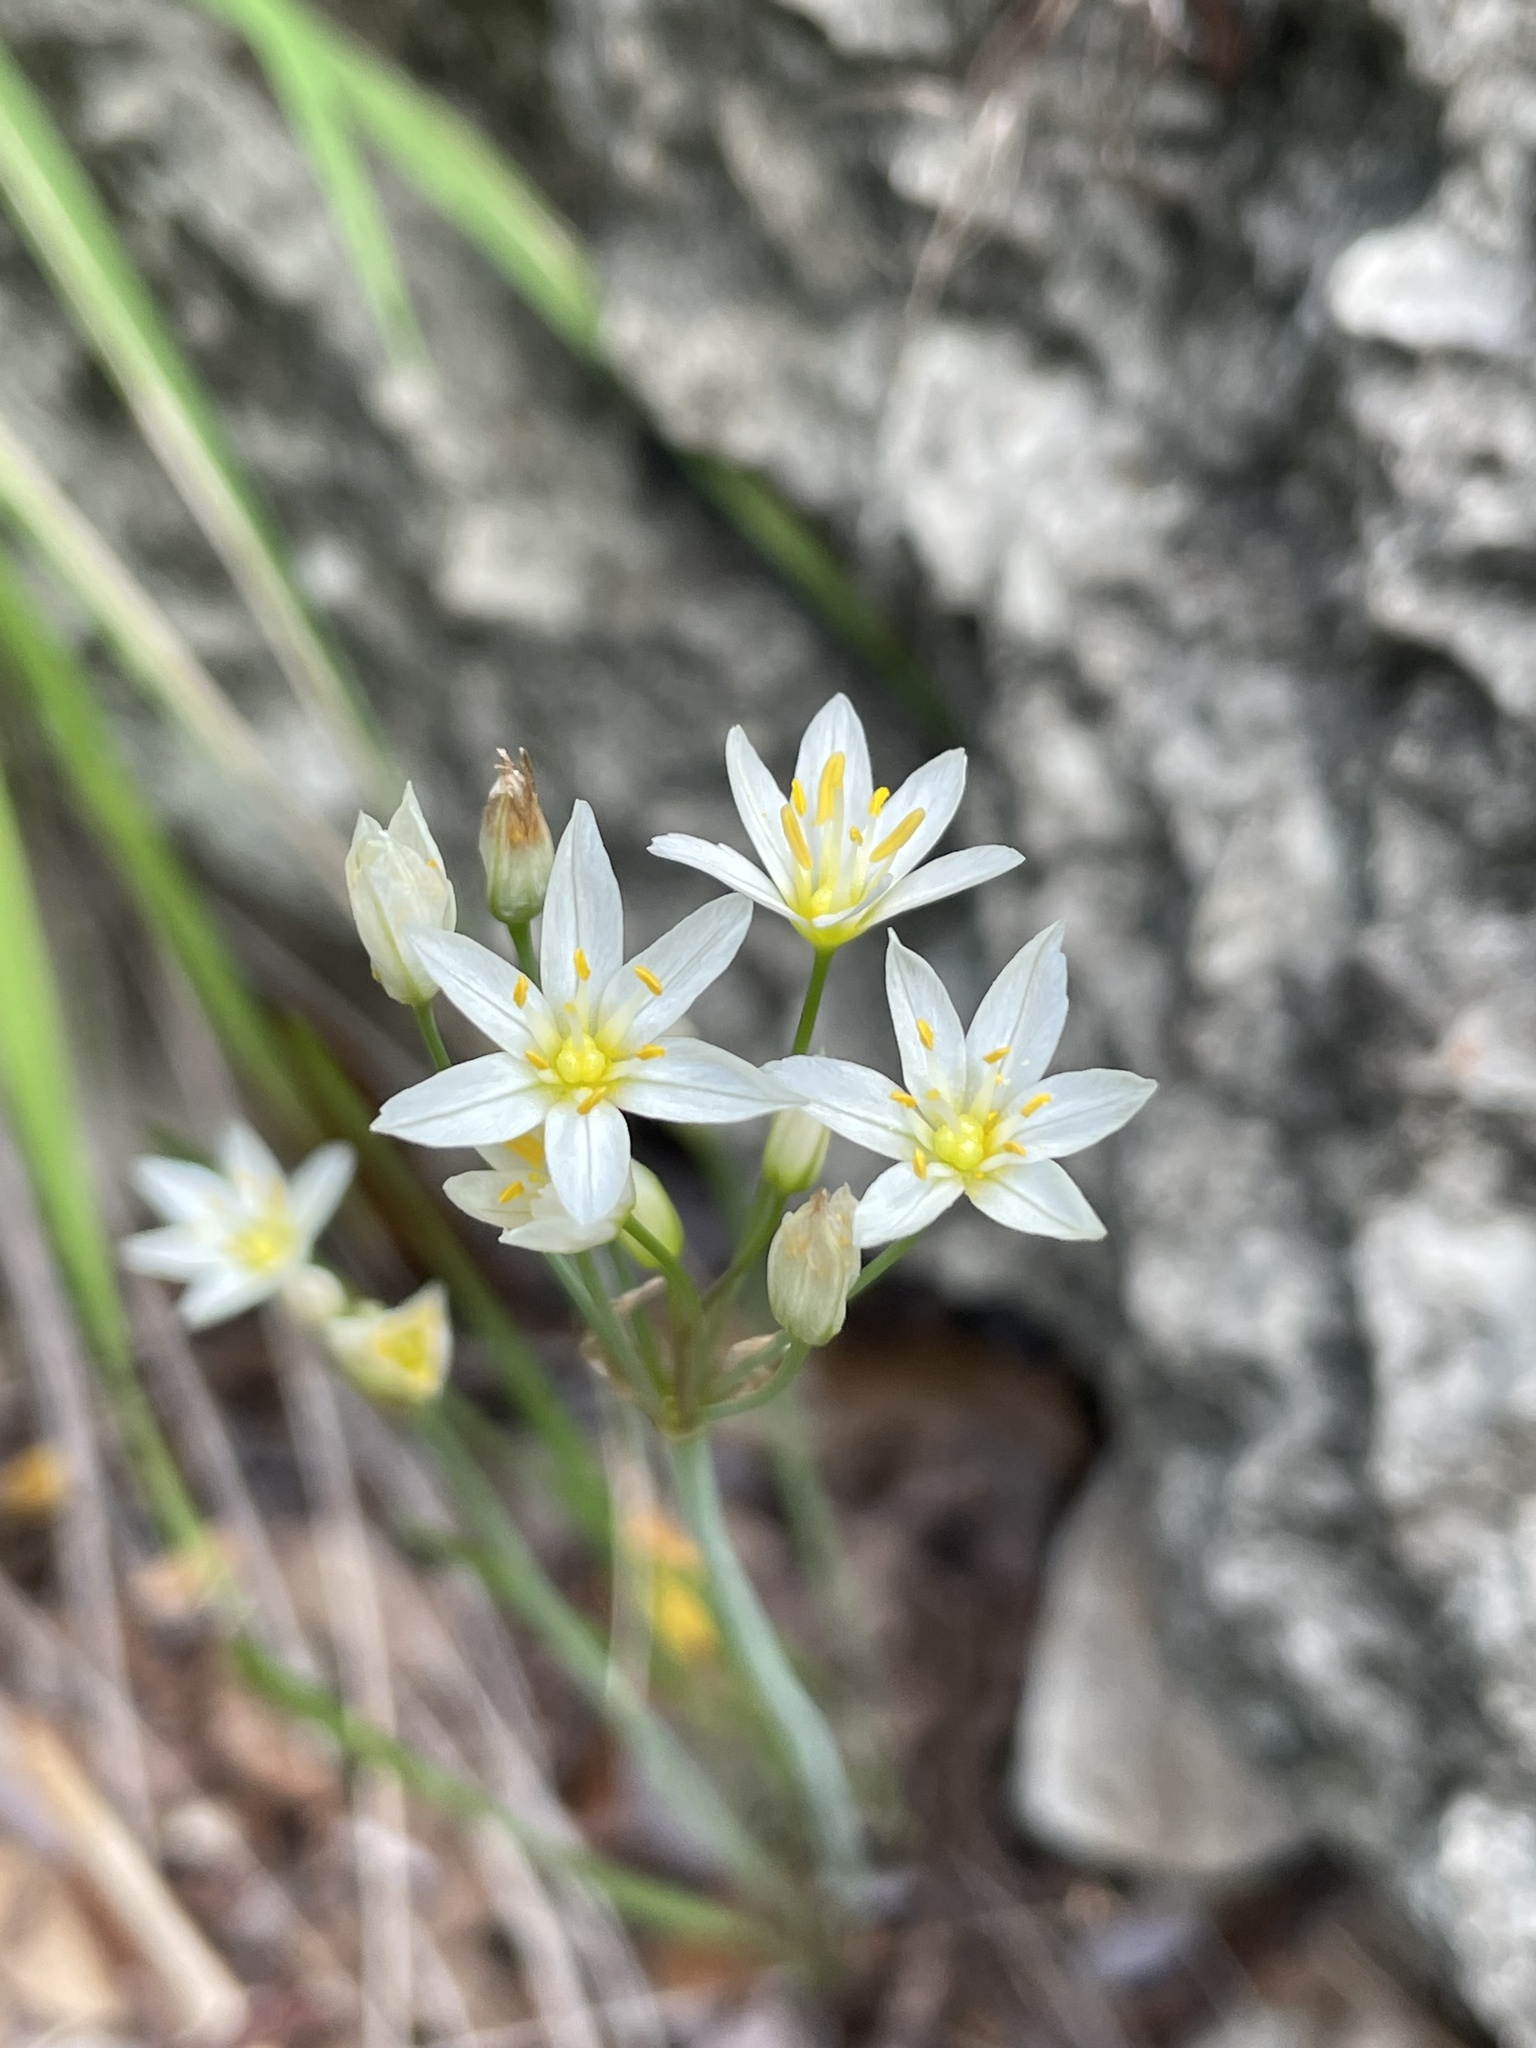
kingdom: Plantae
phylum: Tracheophyta
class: Liliopsida
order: Asparagales
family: Amaryllidaceae
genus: Nothoscordum
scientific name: Nothoscordum bivalve
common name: Crow-poison
